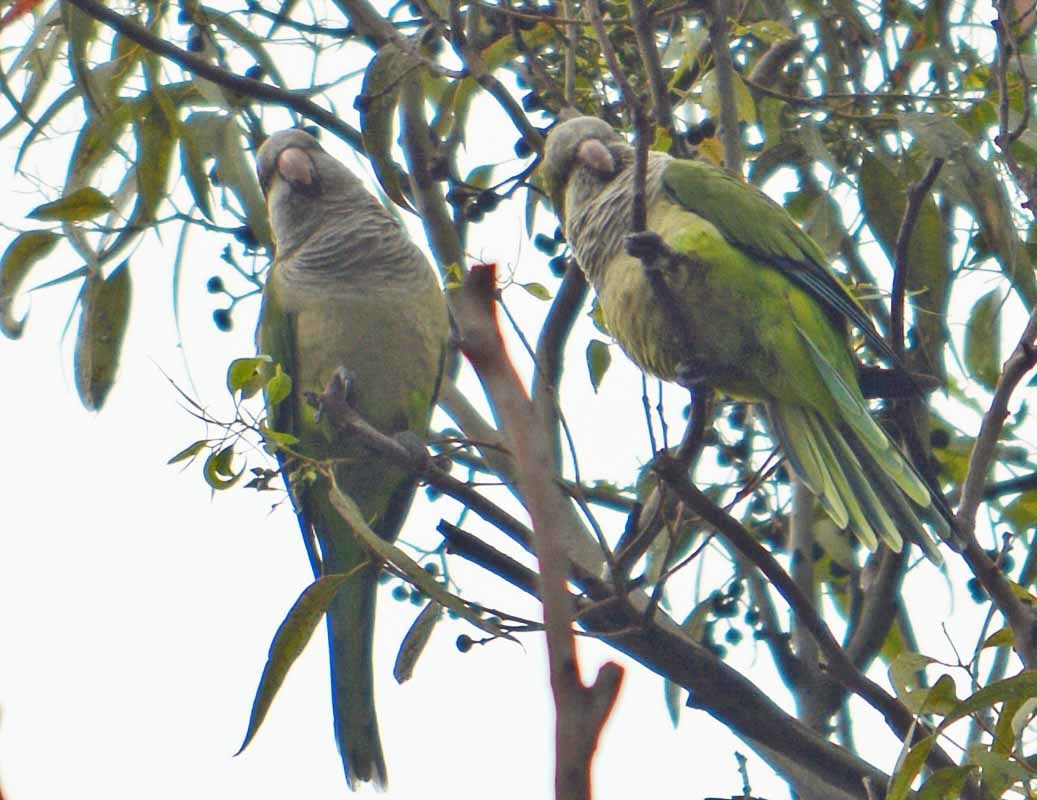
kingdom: Animalia
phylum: Chordata
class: Aves
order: Psittaciformes
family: Psittacidae
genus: Myiopsitta
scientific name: Myiopsitta monachus
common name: Monk parakeet
